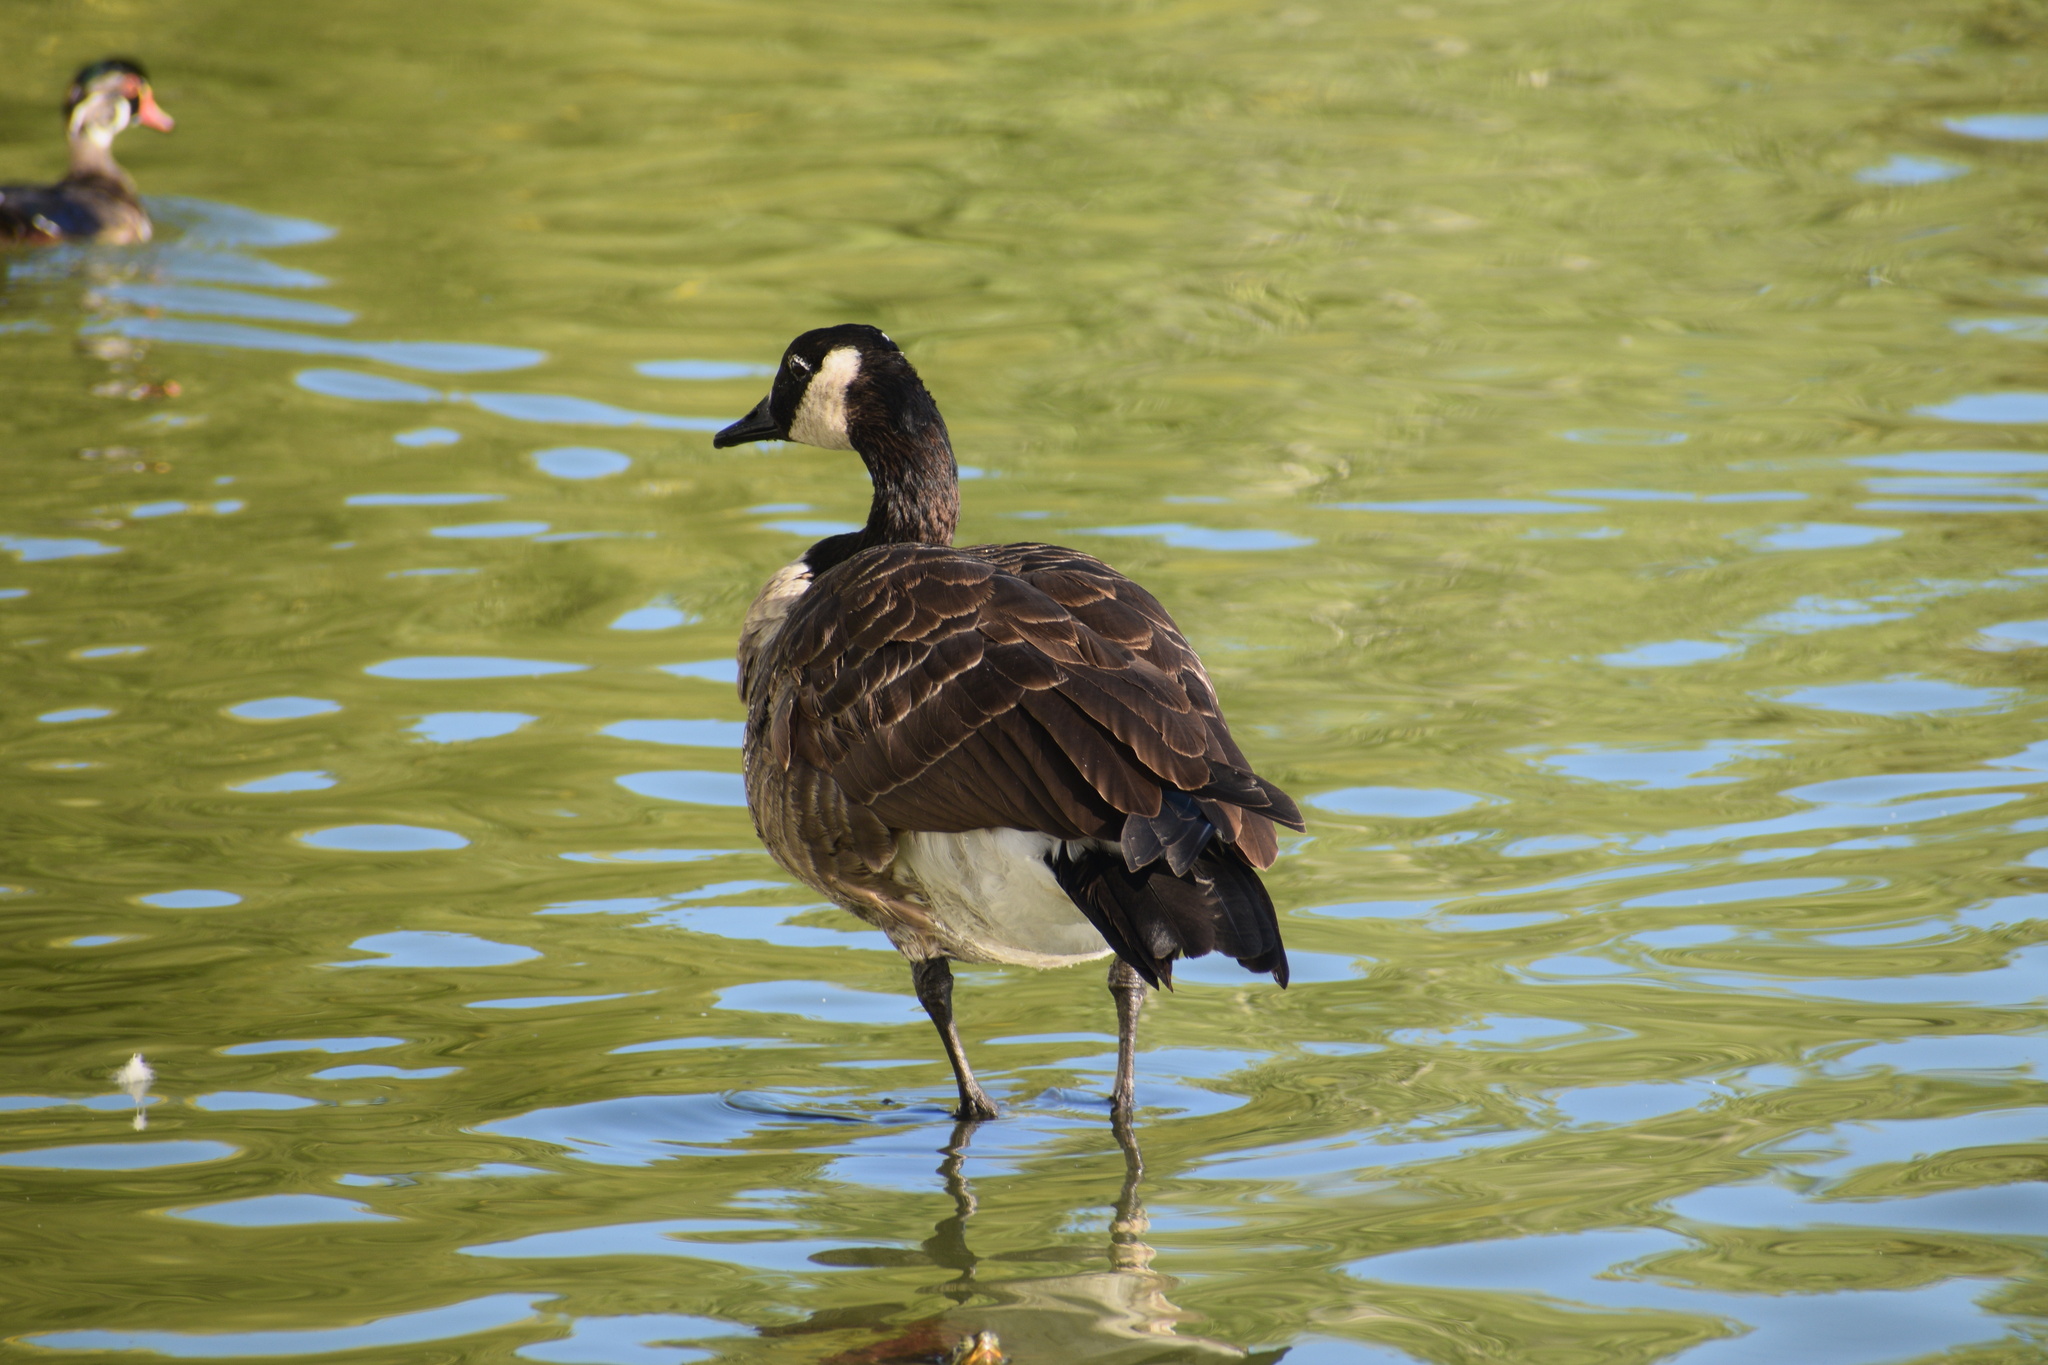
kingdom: Animalia
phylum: Chordata
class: Aves
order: Anseriformes
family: Anatidae
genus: Branta
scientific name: Branta canadensis
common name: Canada goose
